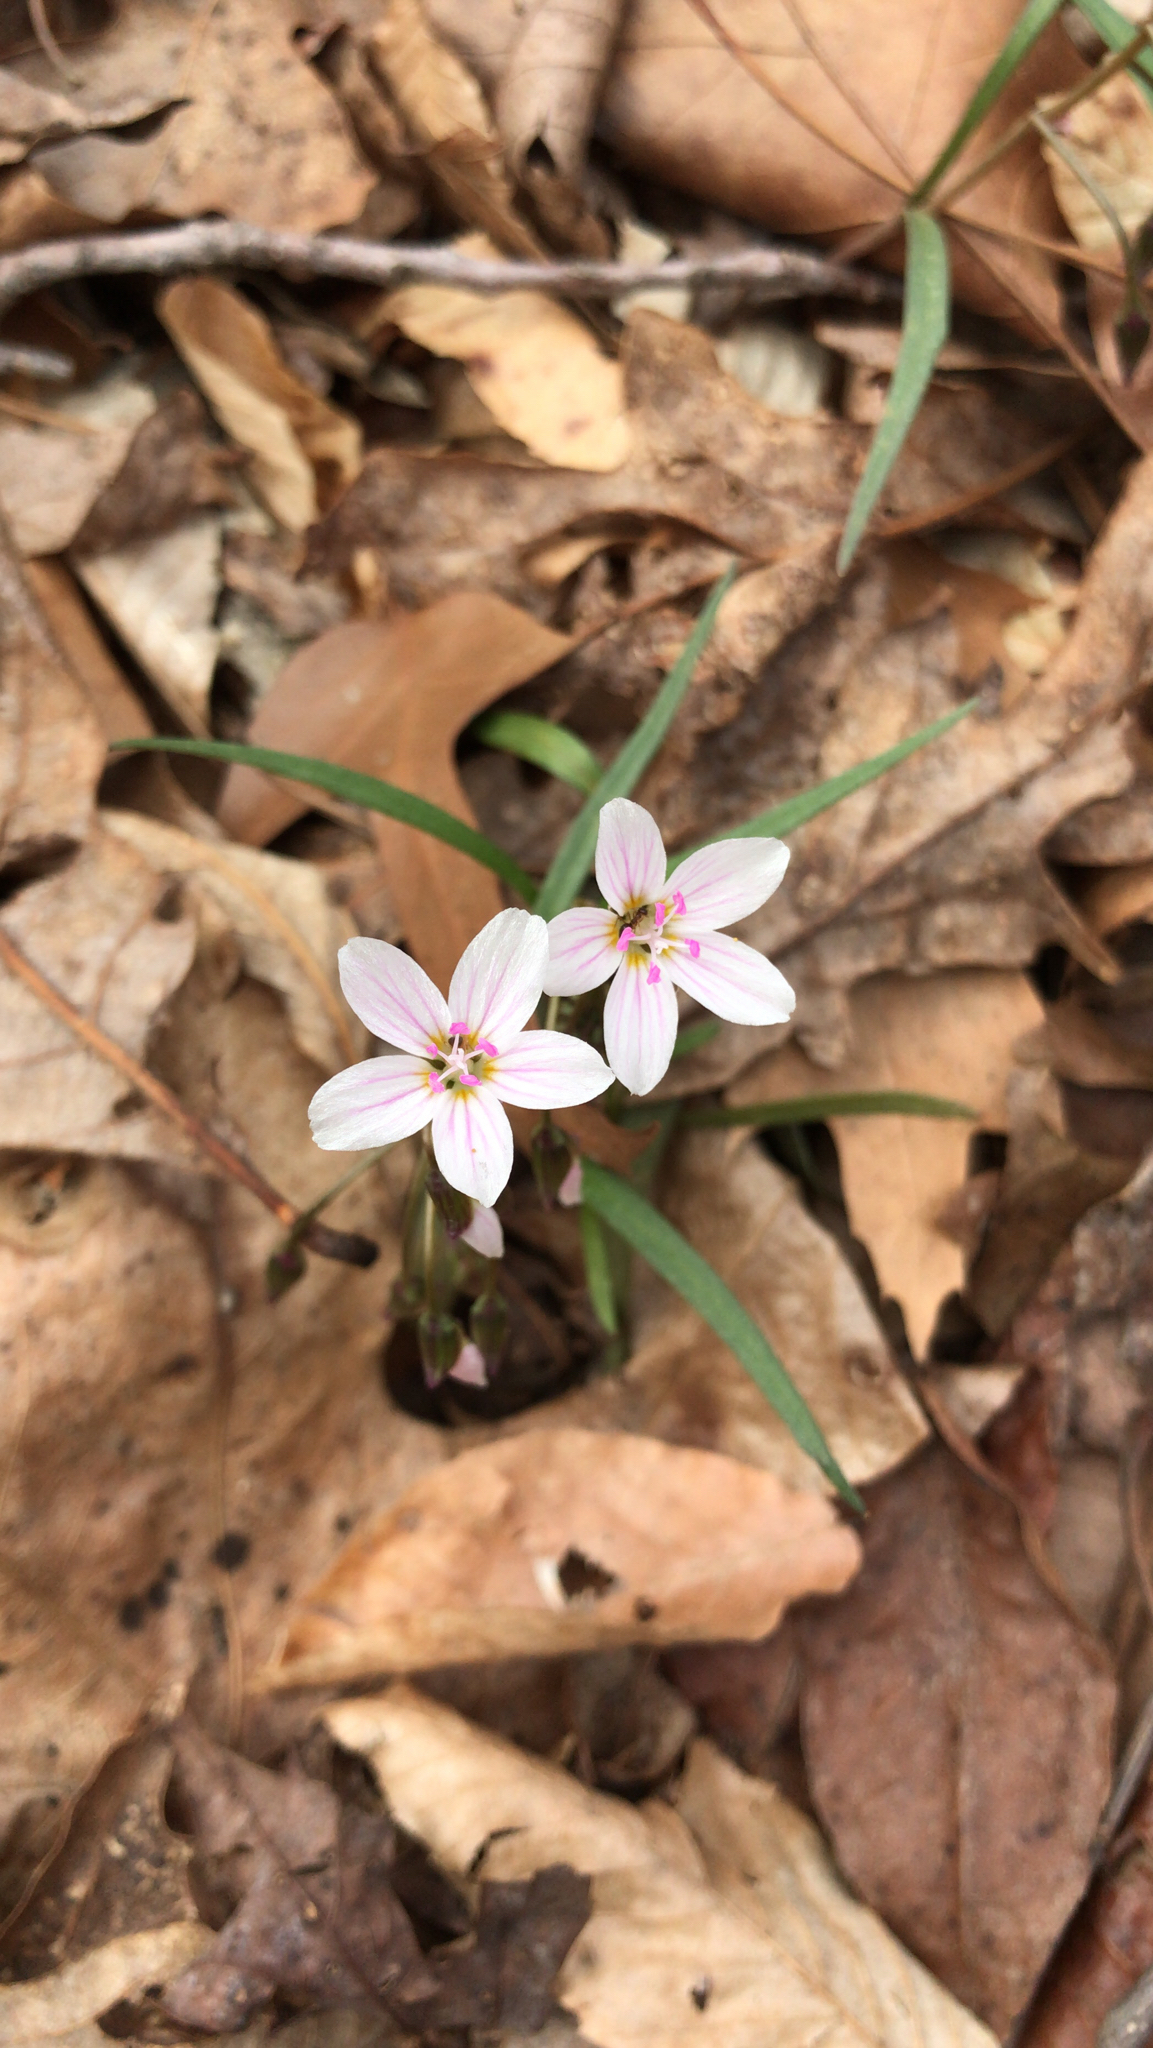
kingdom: Plantae
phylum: Tracheophyta
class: Magnoliopsida
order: Caryophyllales
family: Montiaceae
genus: Claytonia
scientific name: Claytonia virginica
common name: Virginia springbeauty
